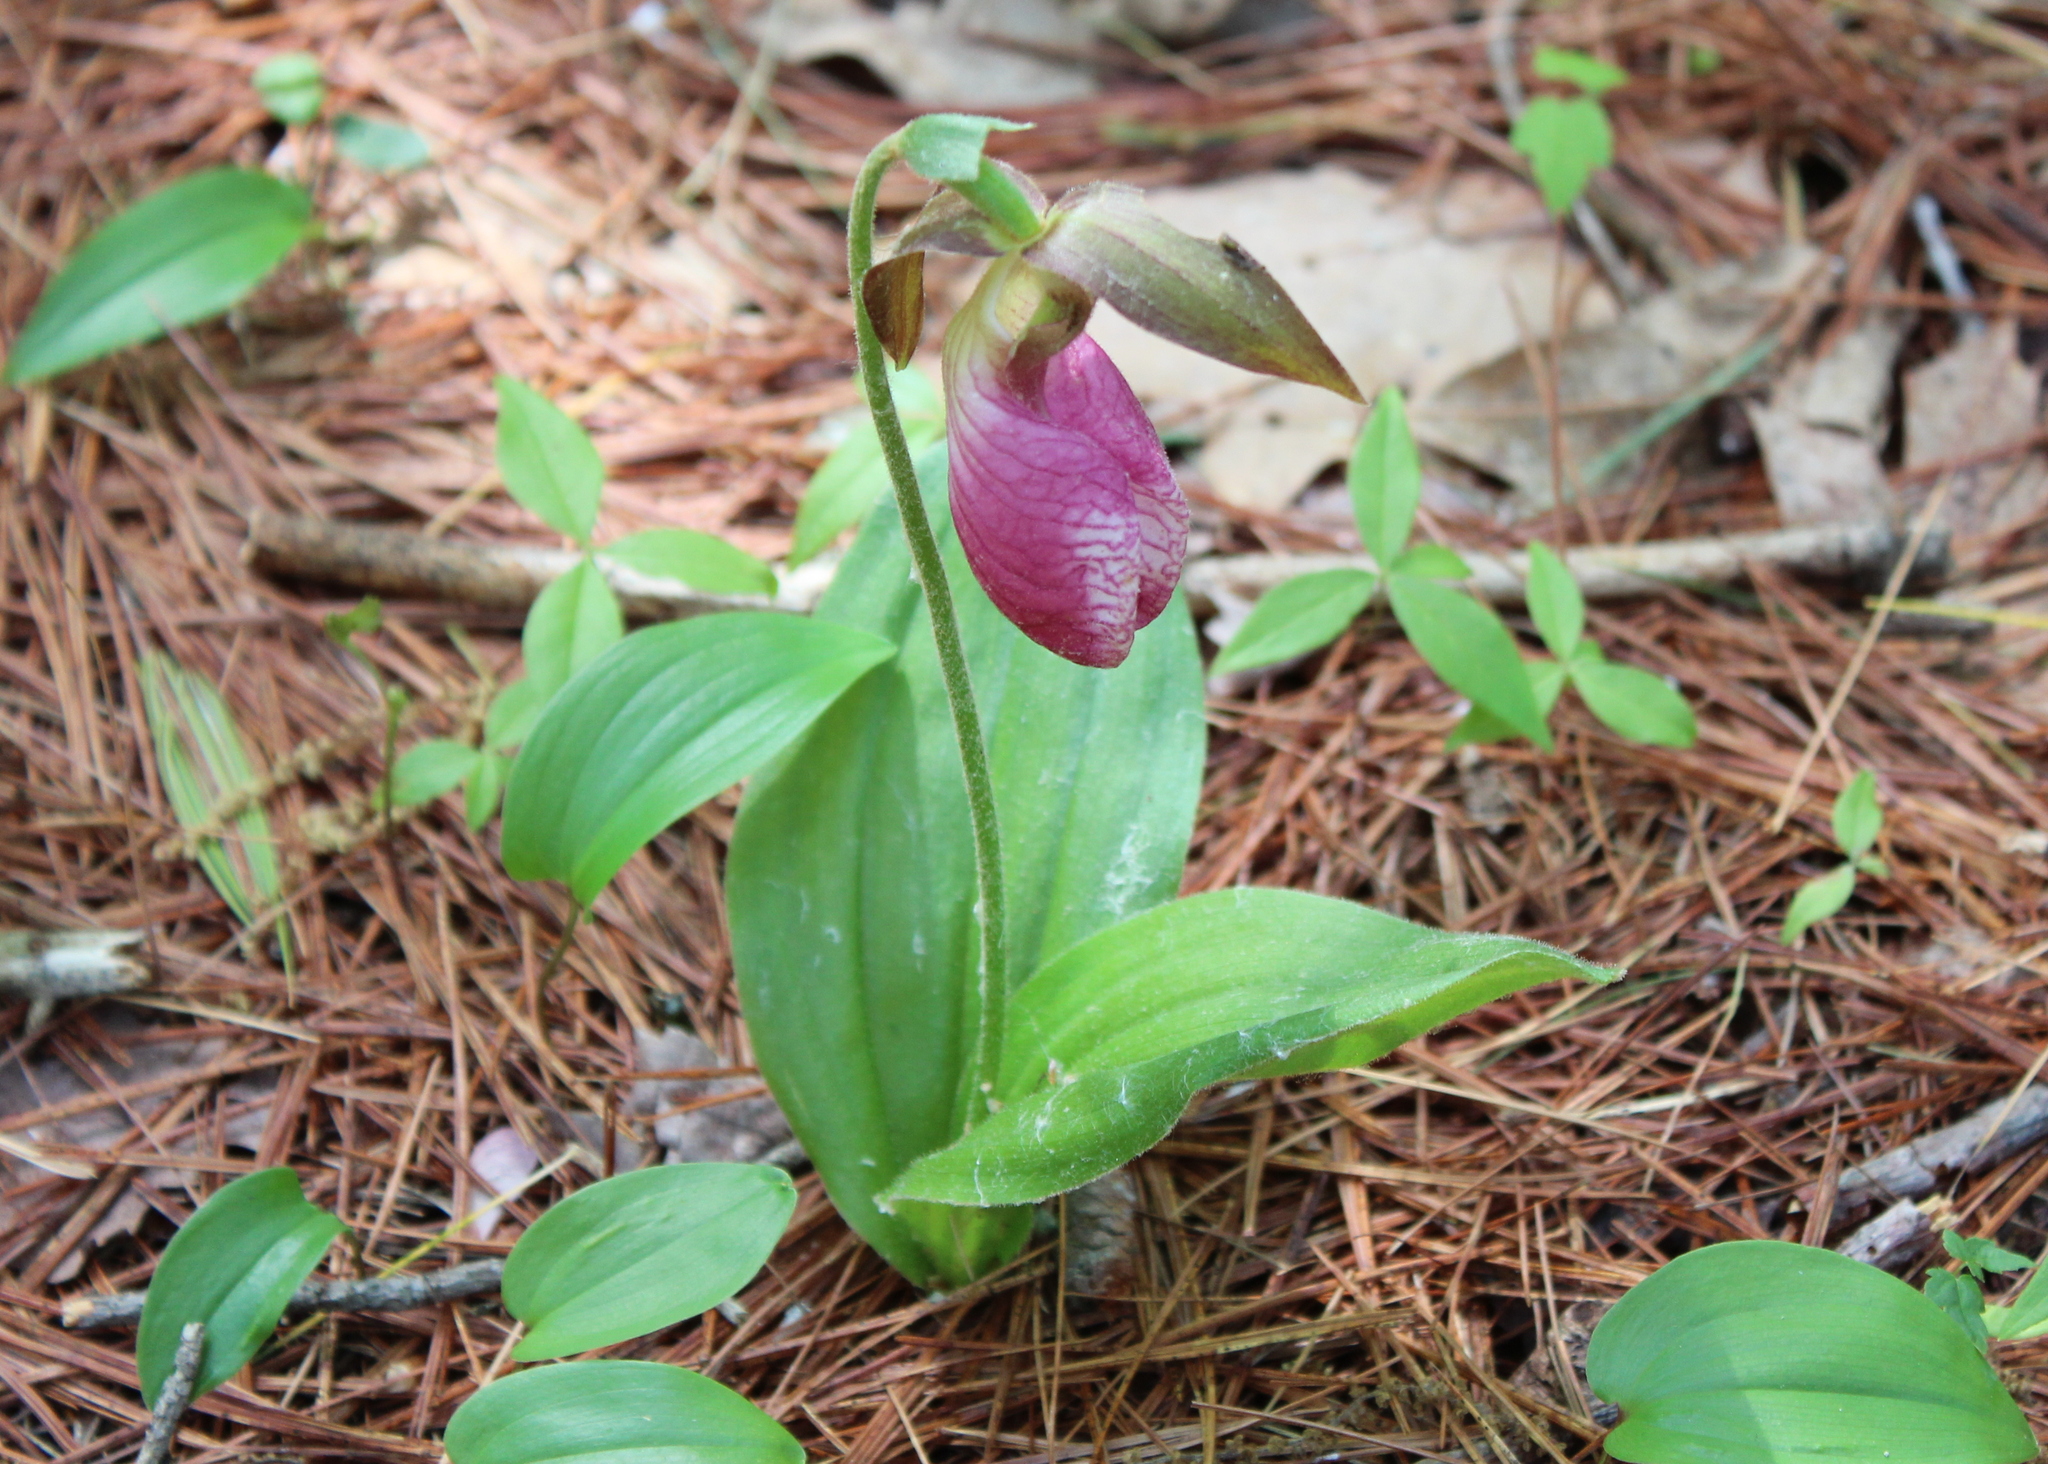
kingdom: Plantae
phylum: Tracheophyta
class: Liliopsida
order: Asparagales
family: Orchidaceae
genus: Cypripedium
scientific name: Cypripedium acaule
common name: Pink lady's-slipper
